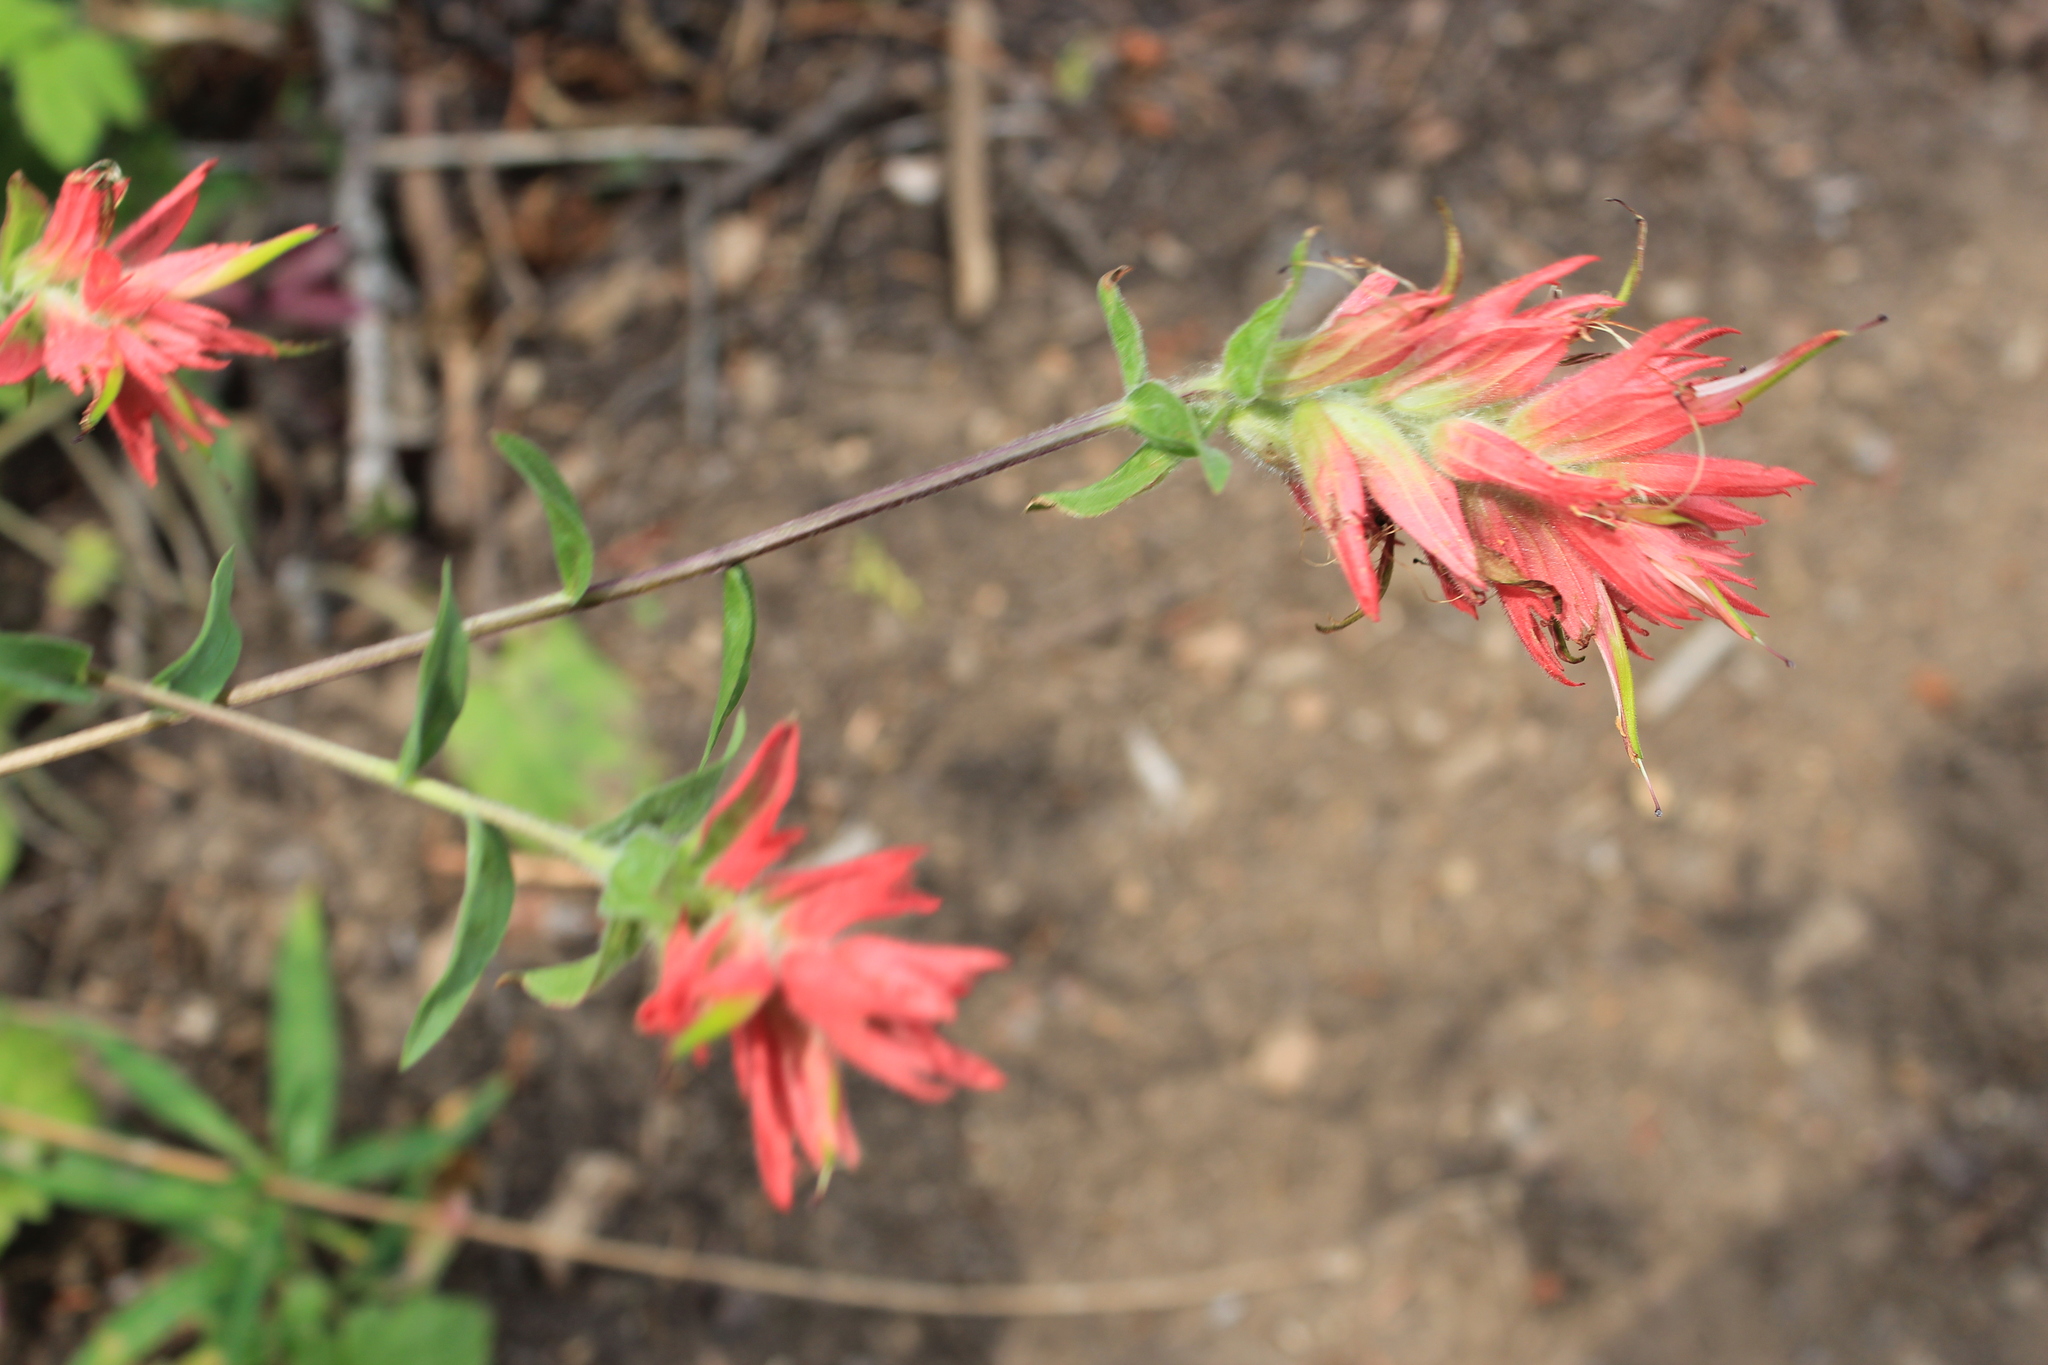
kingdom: Plantae
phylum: Tracheophyta
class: Magnoliopsida
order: Lamiales
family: Orobanchaceae
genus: Castilleja
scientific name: Castilleja miniata
